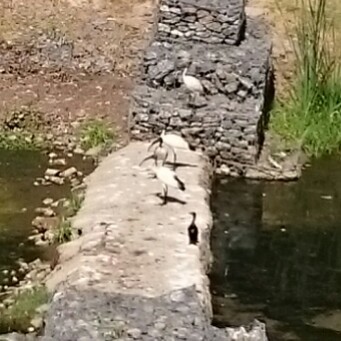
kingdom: Animalia
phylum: Chordata
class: Aves
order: Pelecaniformes
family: Threskiornithidae
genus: Threskiornis
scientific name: Threskiornis aethiopicus
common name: Sacred ibis
